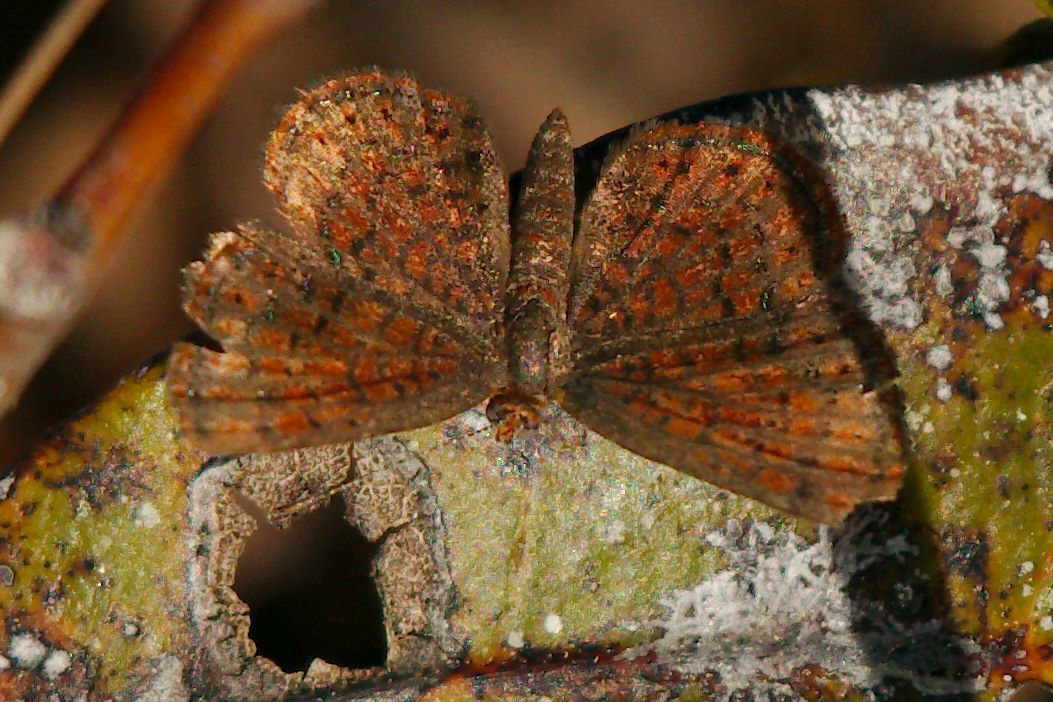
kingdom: Animalia
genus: Calephelis
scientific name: Calephelis virginiensis
